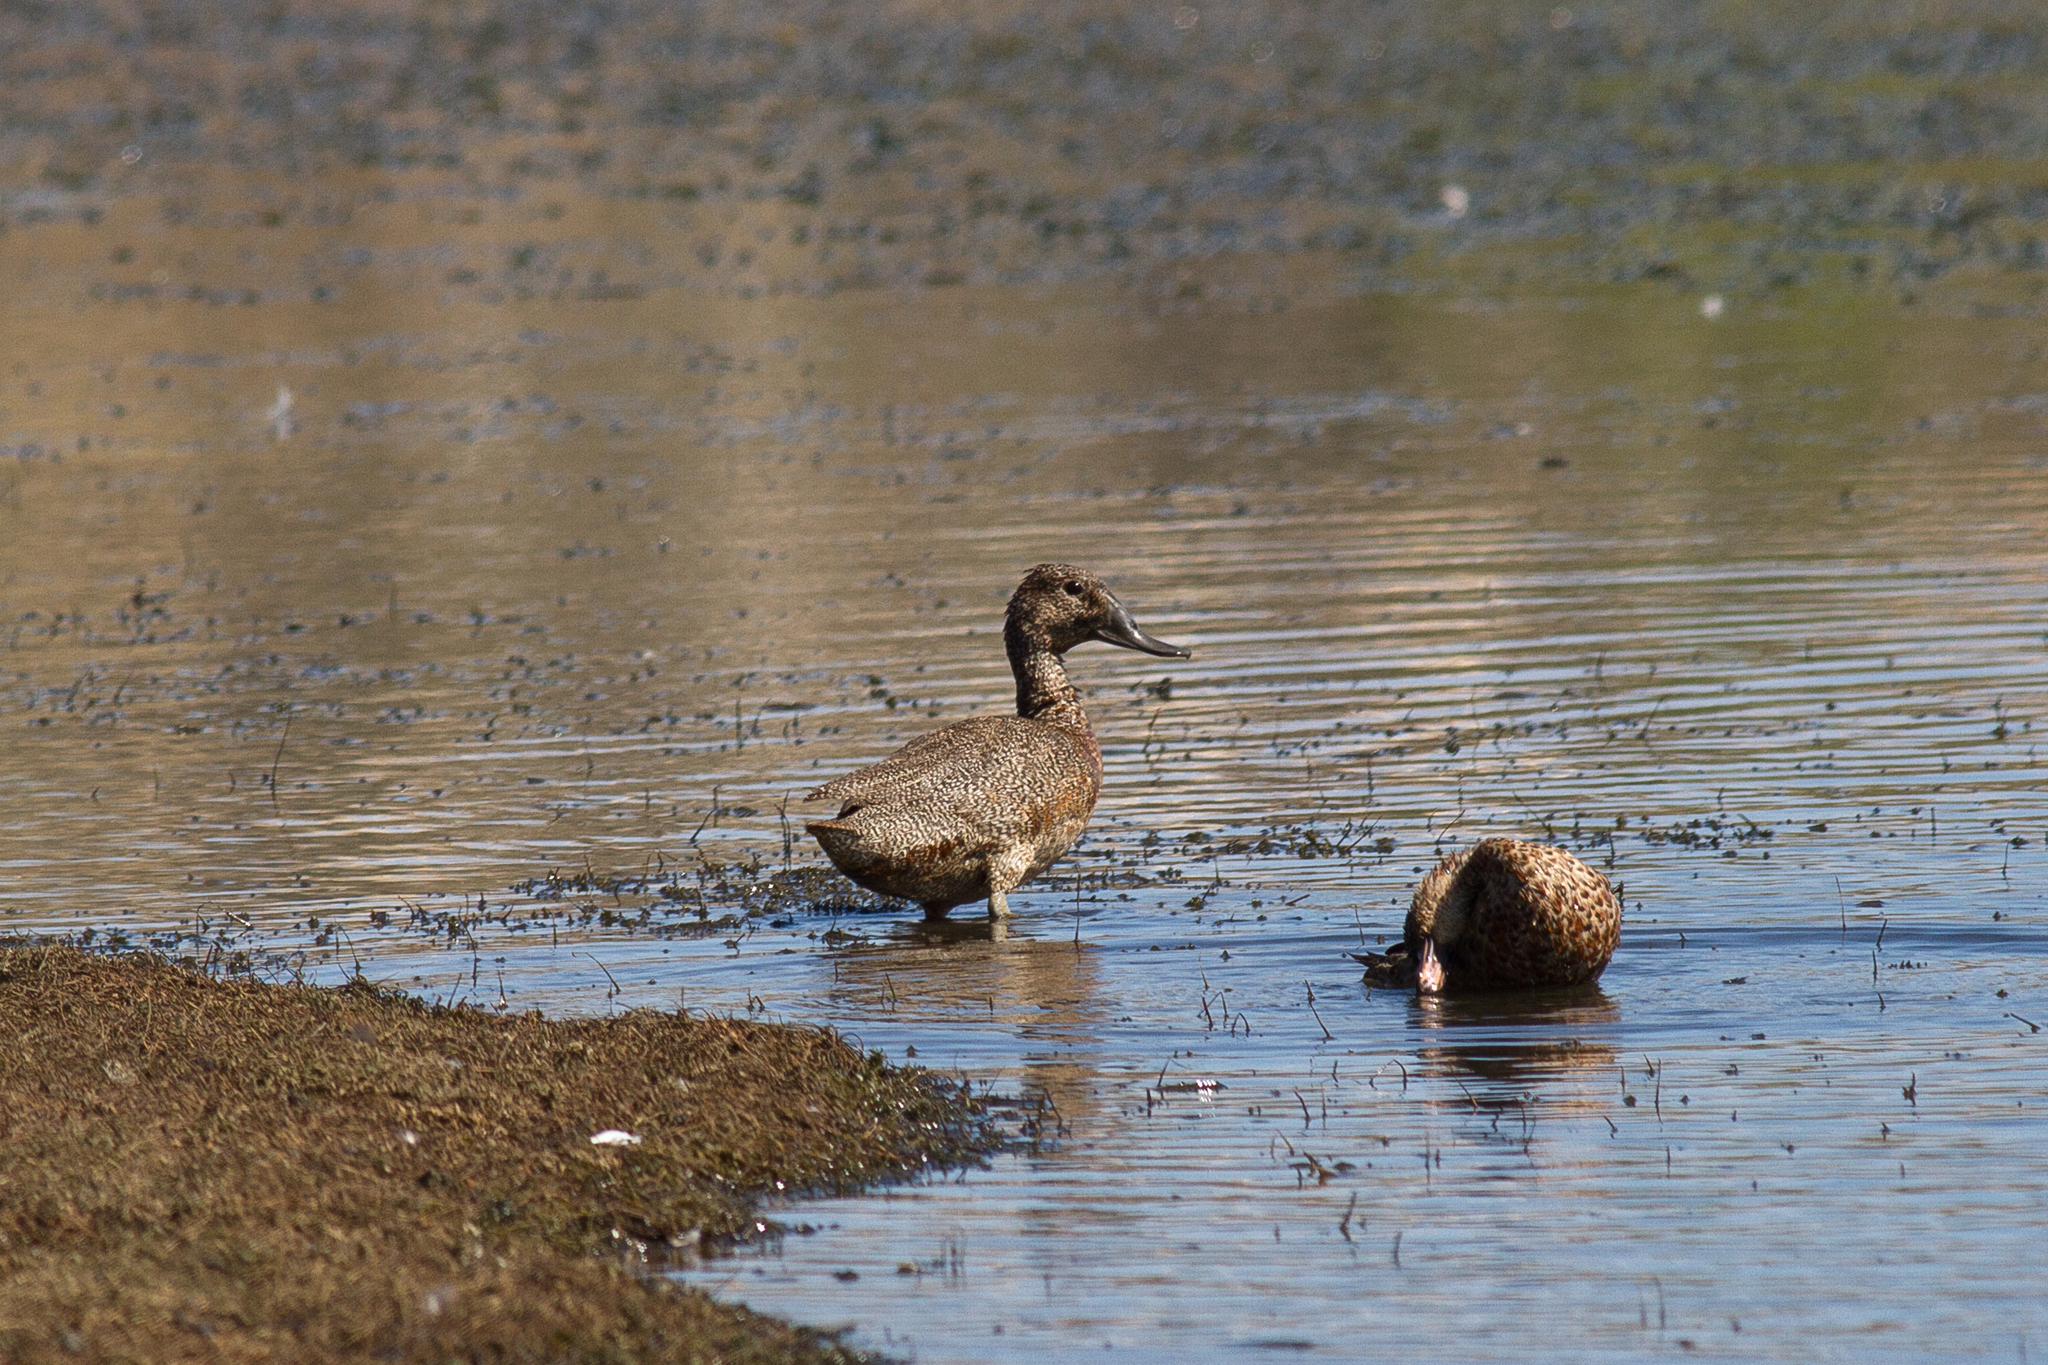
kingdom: Animalia
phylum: Chordata
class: Aves
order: Anseriformes
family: Anatidae
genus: Stictonetta
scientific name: Stictonetta naevosa
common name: Freckled duck
